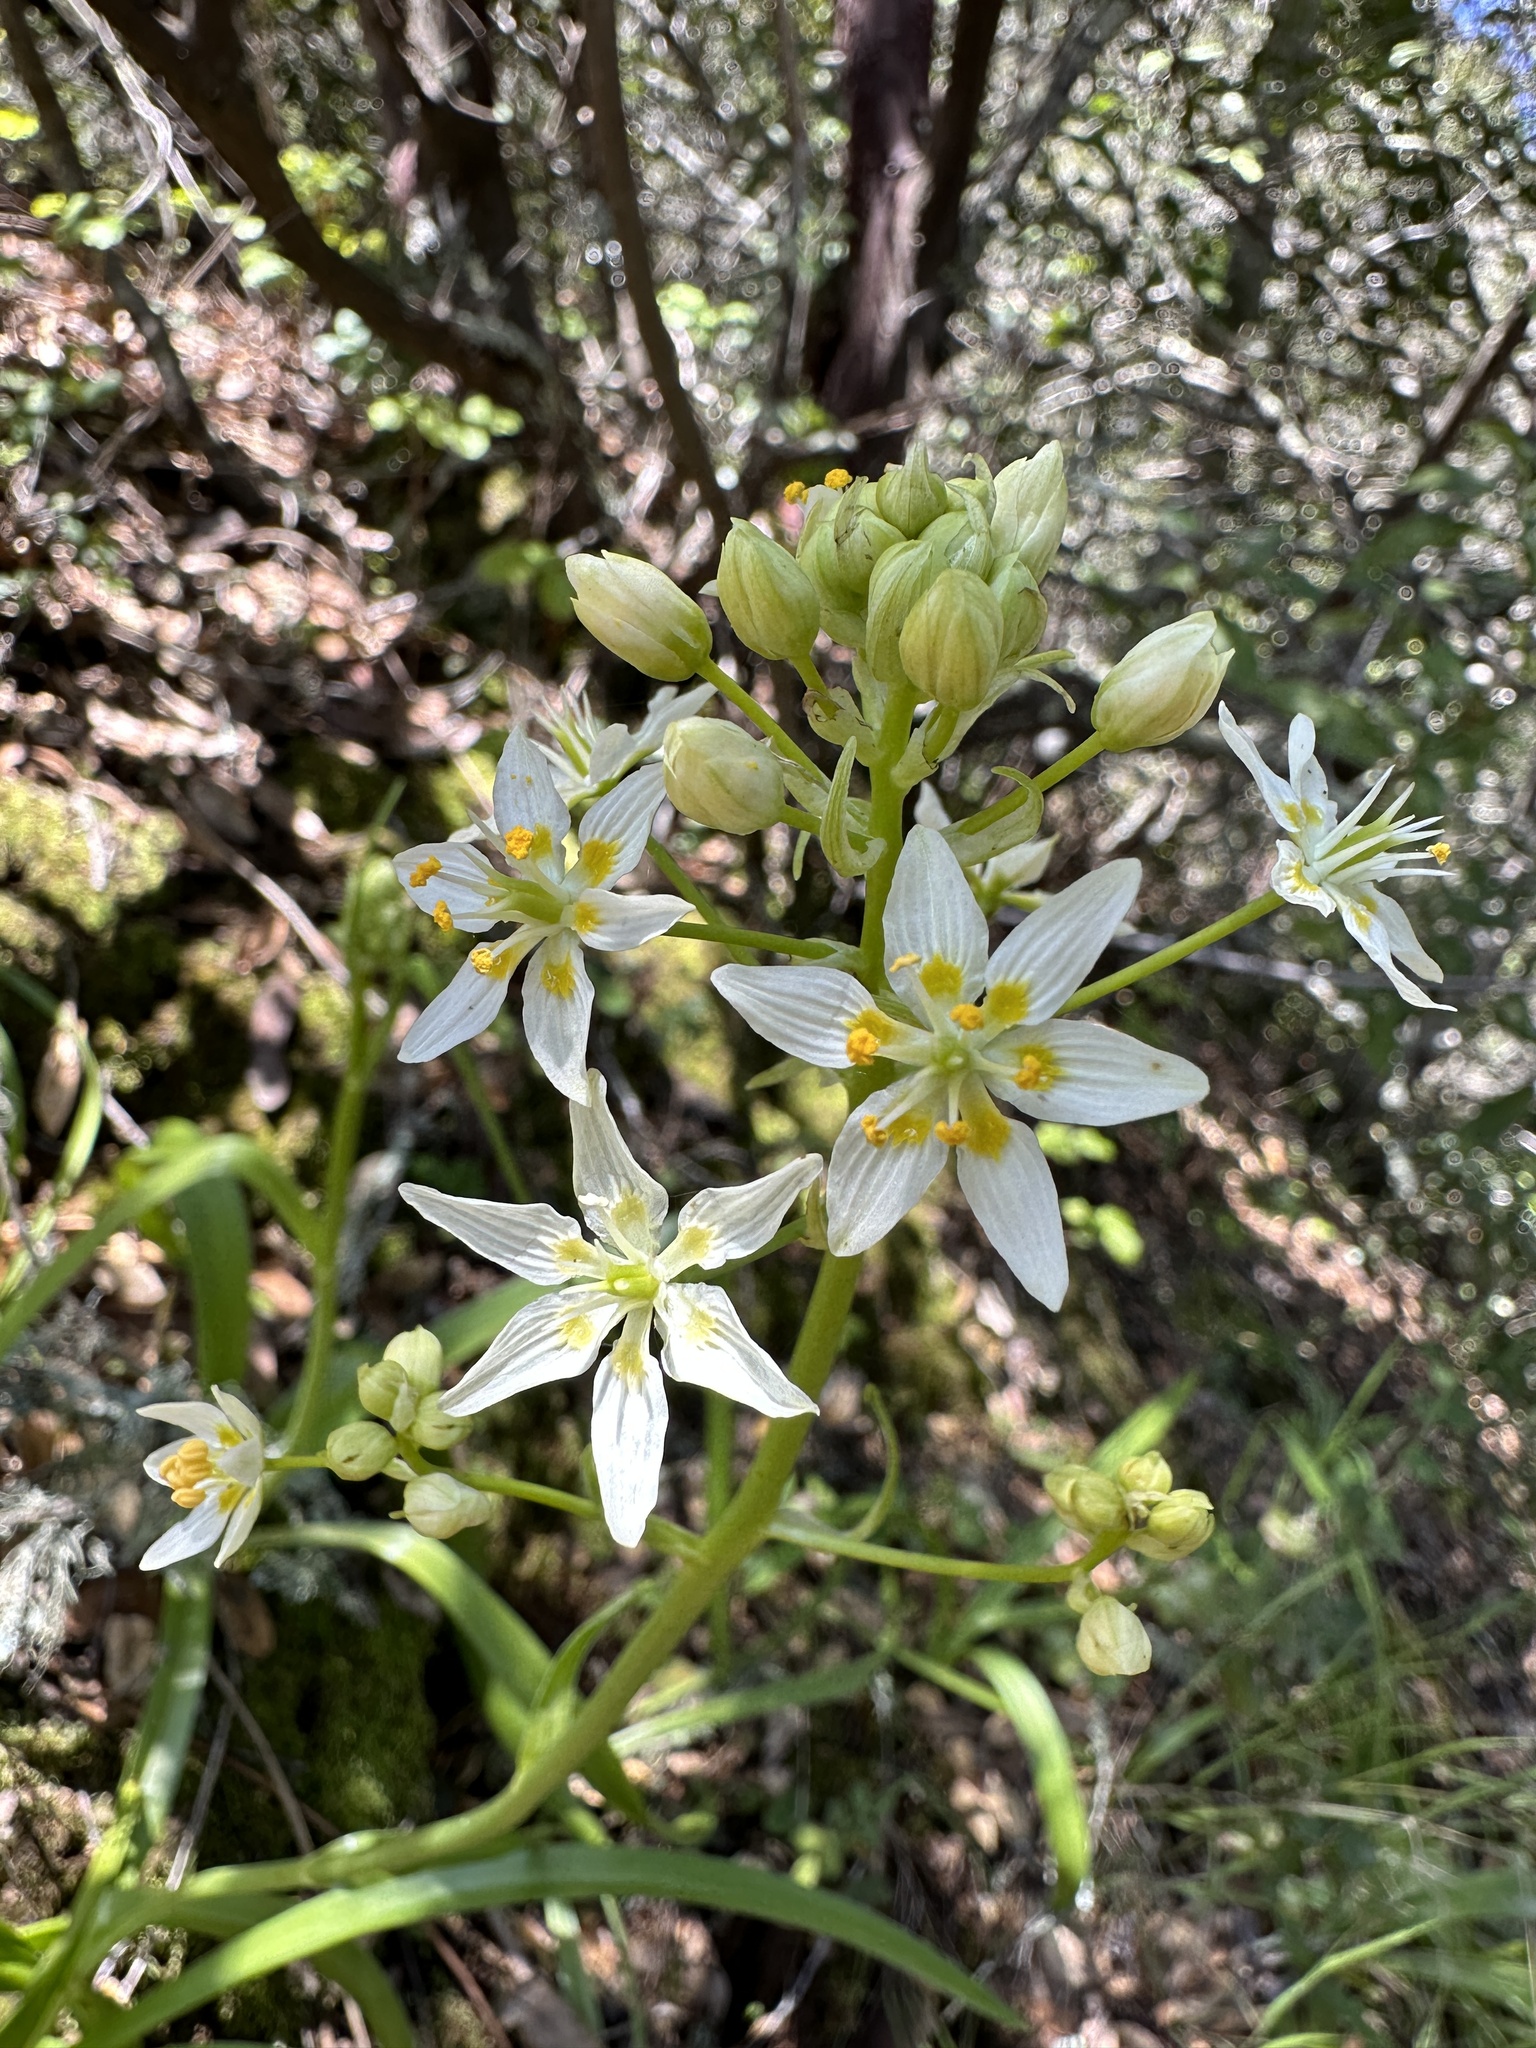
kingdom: Plantae
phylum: Tracheophyta
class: Liliopsida
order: Liliales
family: Melanthiaceae
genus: Toxicoscordion
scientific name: Toxicoscordion fremontii
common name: Fremont's death camas
